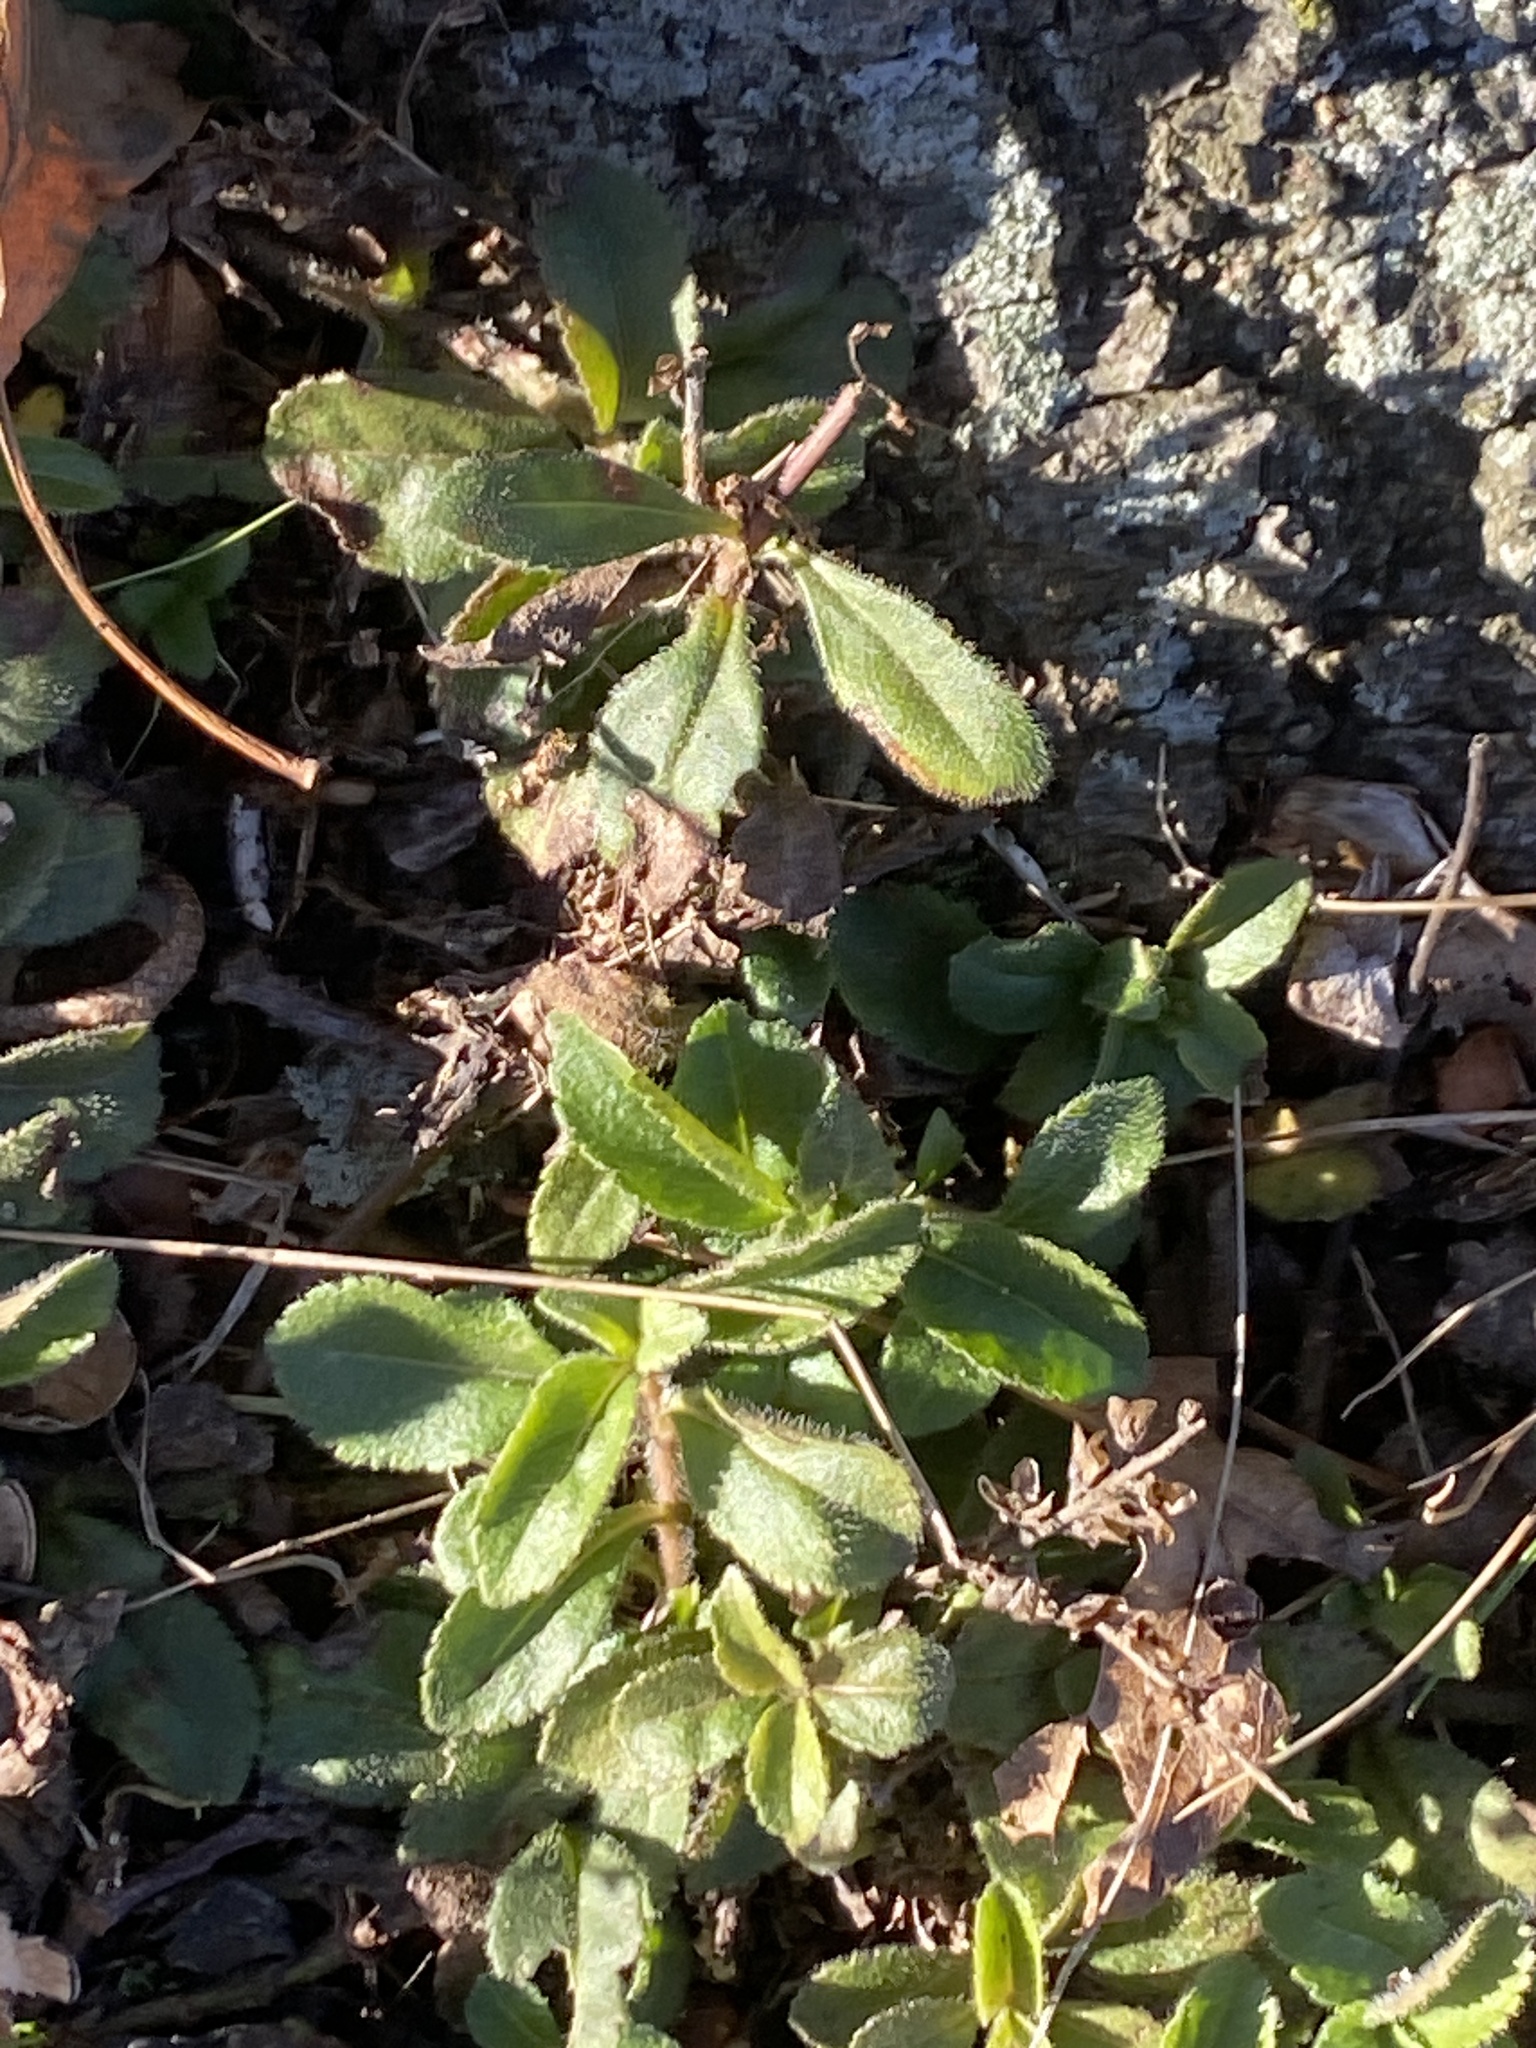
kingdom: Plantae
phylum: Tracheophyta
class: Magnoliopsida
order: Lamiales
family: Plantaginaceae
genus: Veronica
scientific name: Veronica officinalis
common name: Common speedwell
